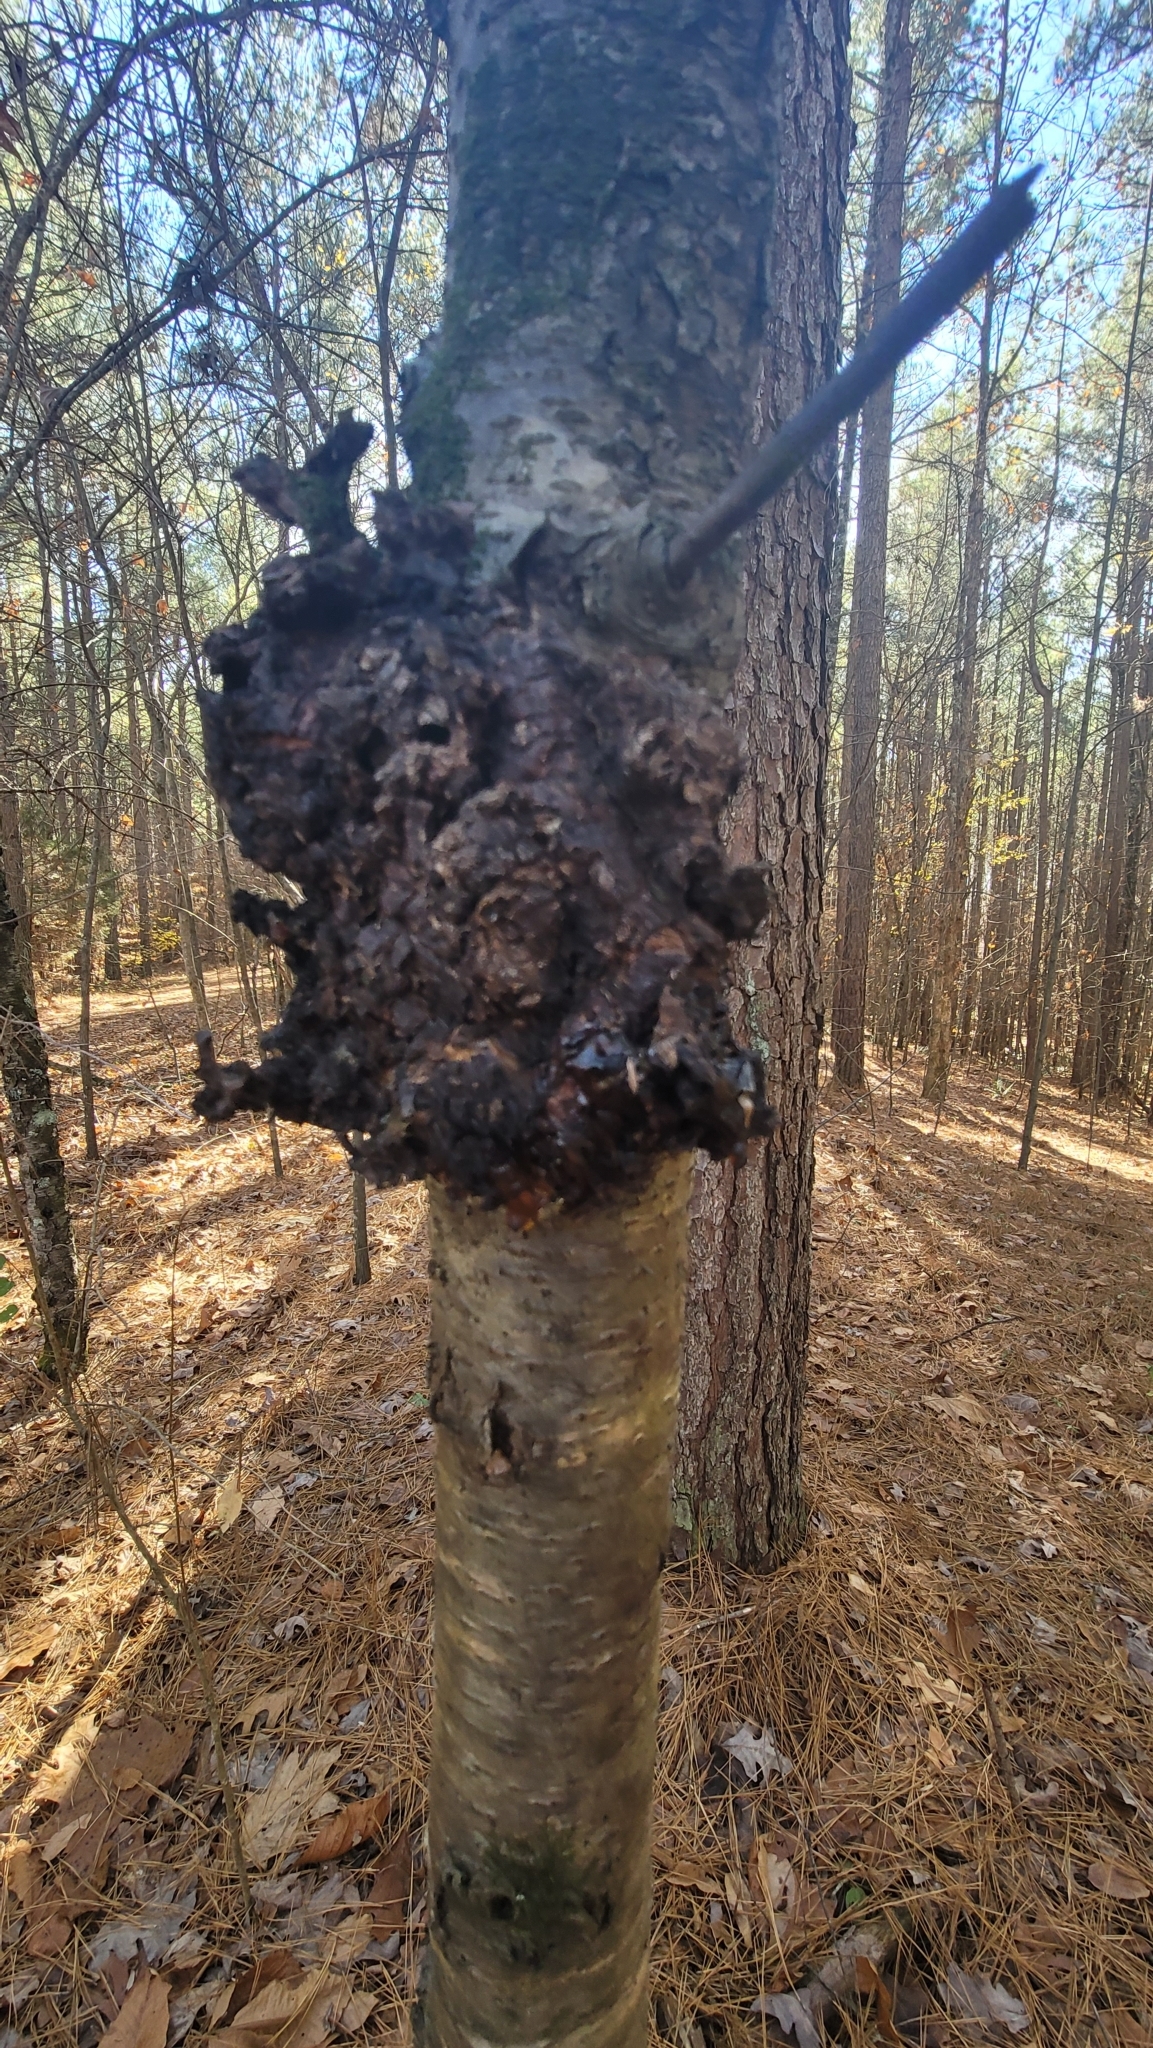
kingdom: Fungi
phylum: Ascomycota
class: Dothideomycetes
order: Venturiales
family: Venturiaceae
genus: Apiosporina
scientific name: Apiosporina morbosa
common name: Black knot
